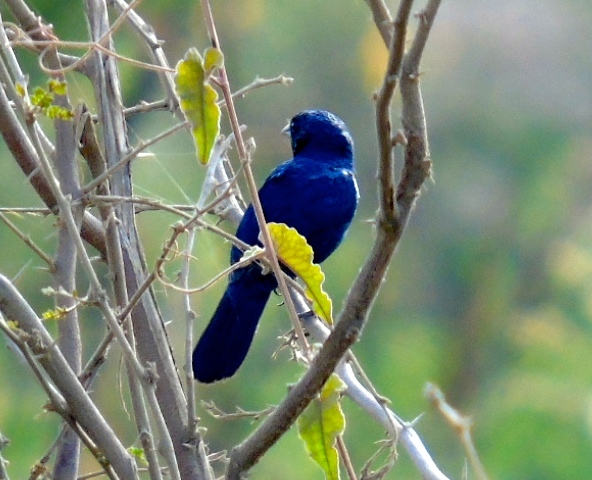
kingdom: Animalia
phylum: Chordata
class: Aves
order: Passeriformes
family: Thraupidae
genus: Volatinia
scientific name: Volatinia jacarina
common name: Blue-black grassquit
